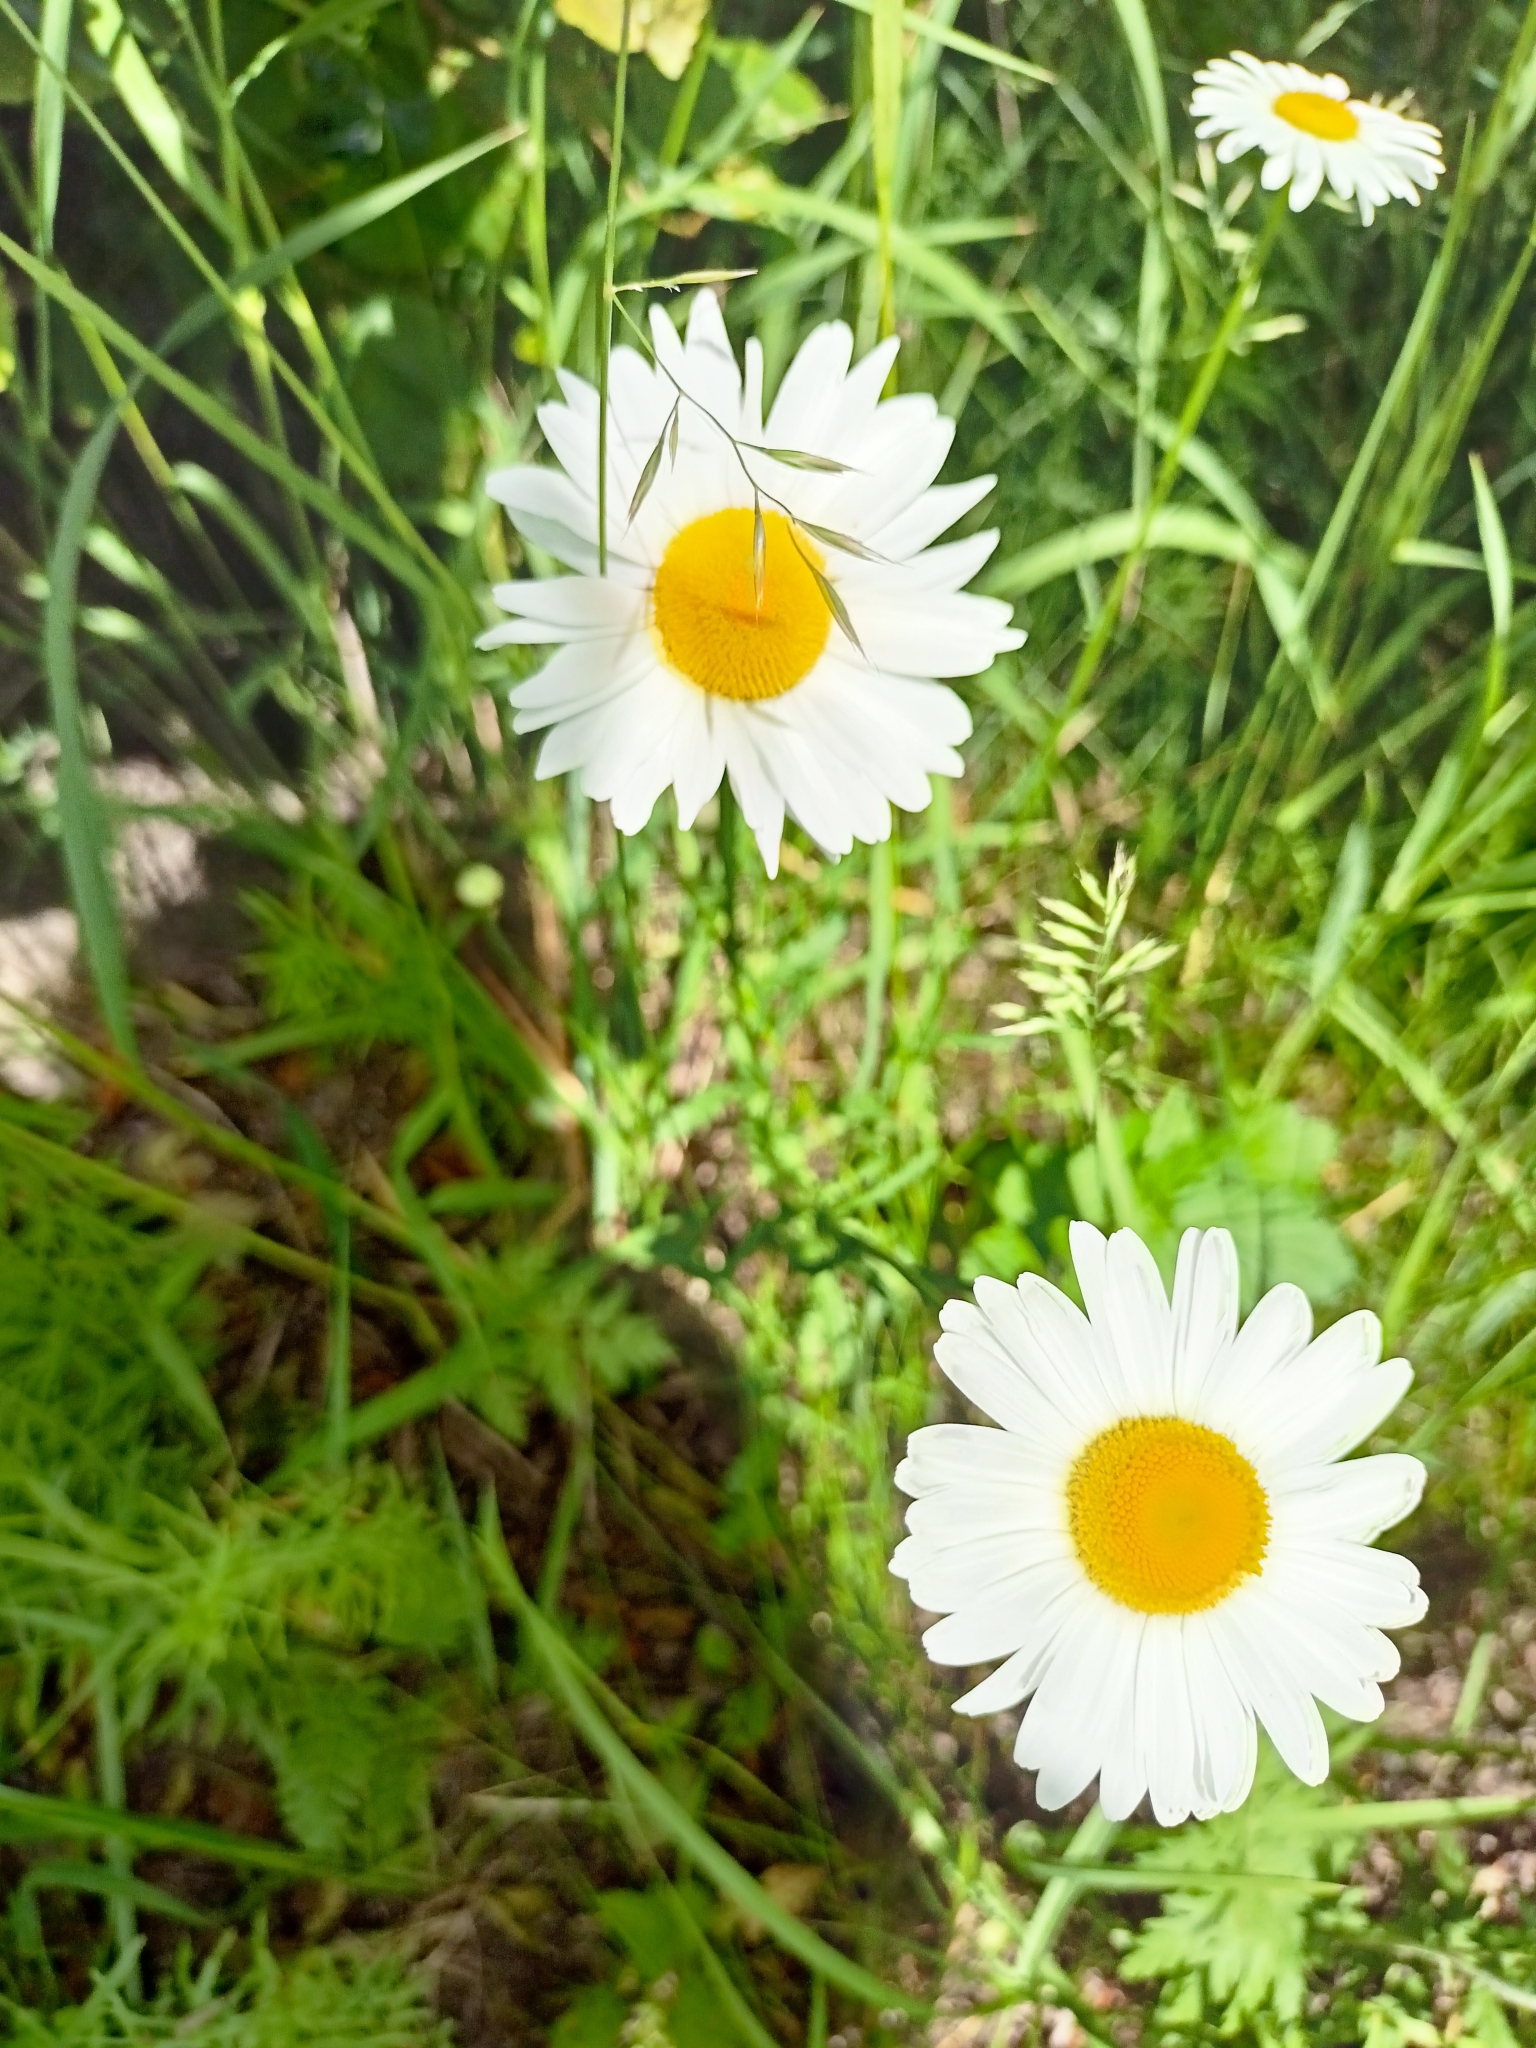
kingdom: Plantae
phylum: Tracheophyta
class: Magnoliopsida
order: Asterales
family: Asteraceae
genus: Leucanthemum
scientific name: Leucanthemum vulgare
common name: Oxeye daisy
